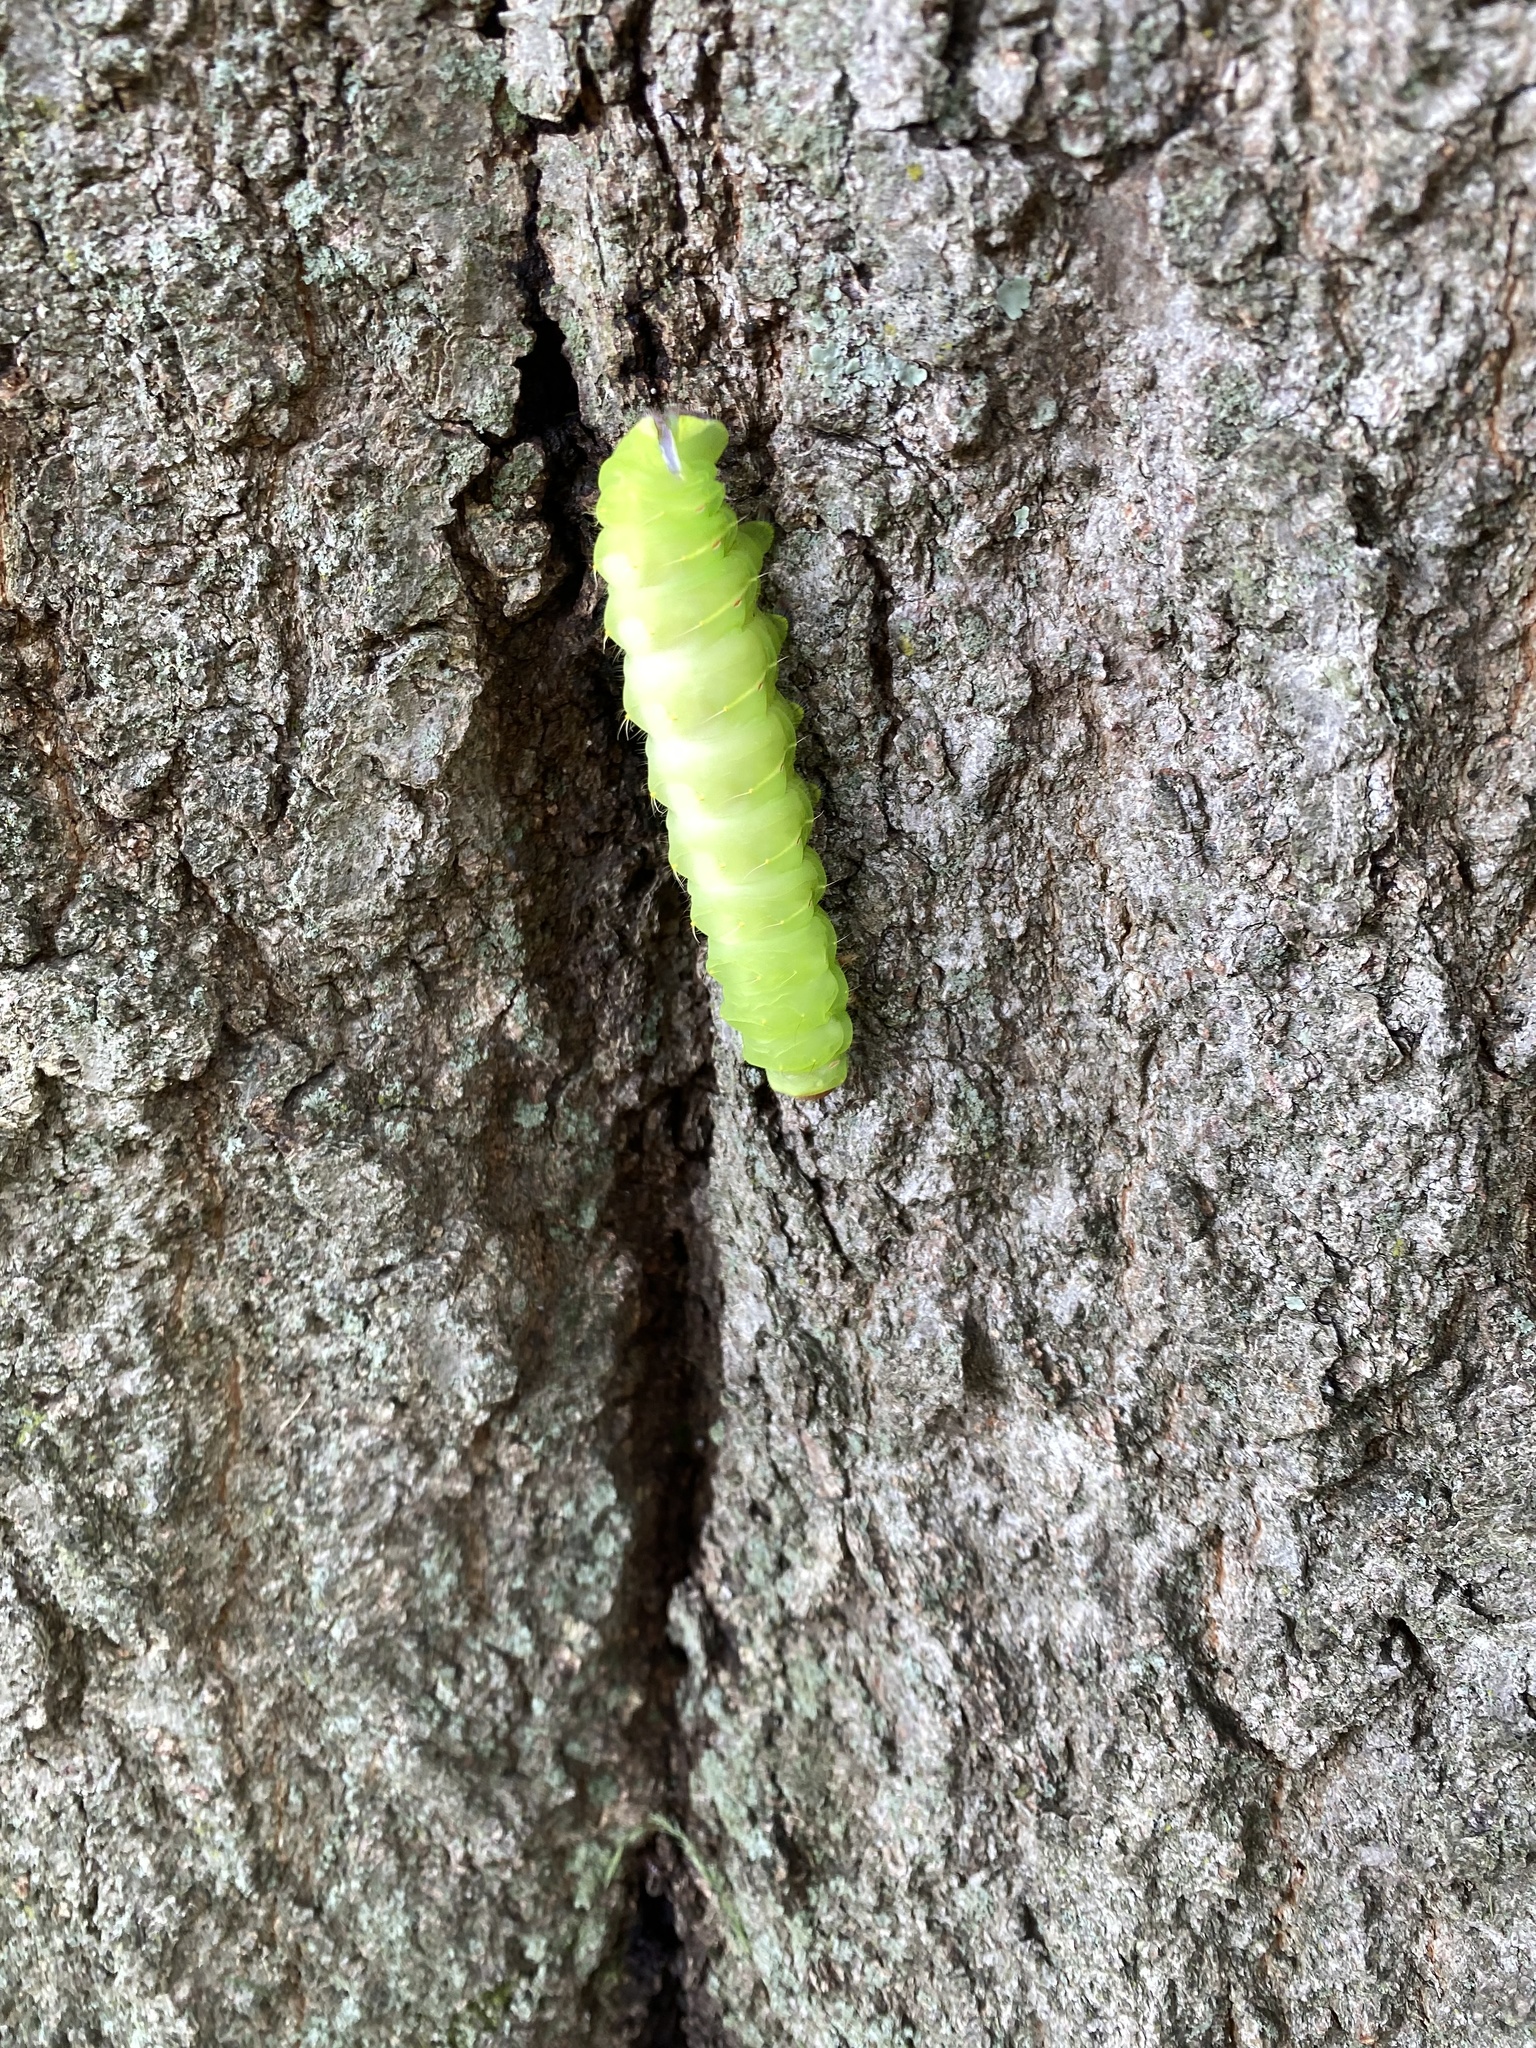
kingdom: Animalia
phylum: Arthropoda
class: Insecta
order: Lepidoptera
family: Saturniidae
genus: Antheraea
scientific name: Antheraea polyphemus
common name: Polyphemus moth
